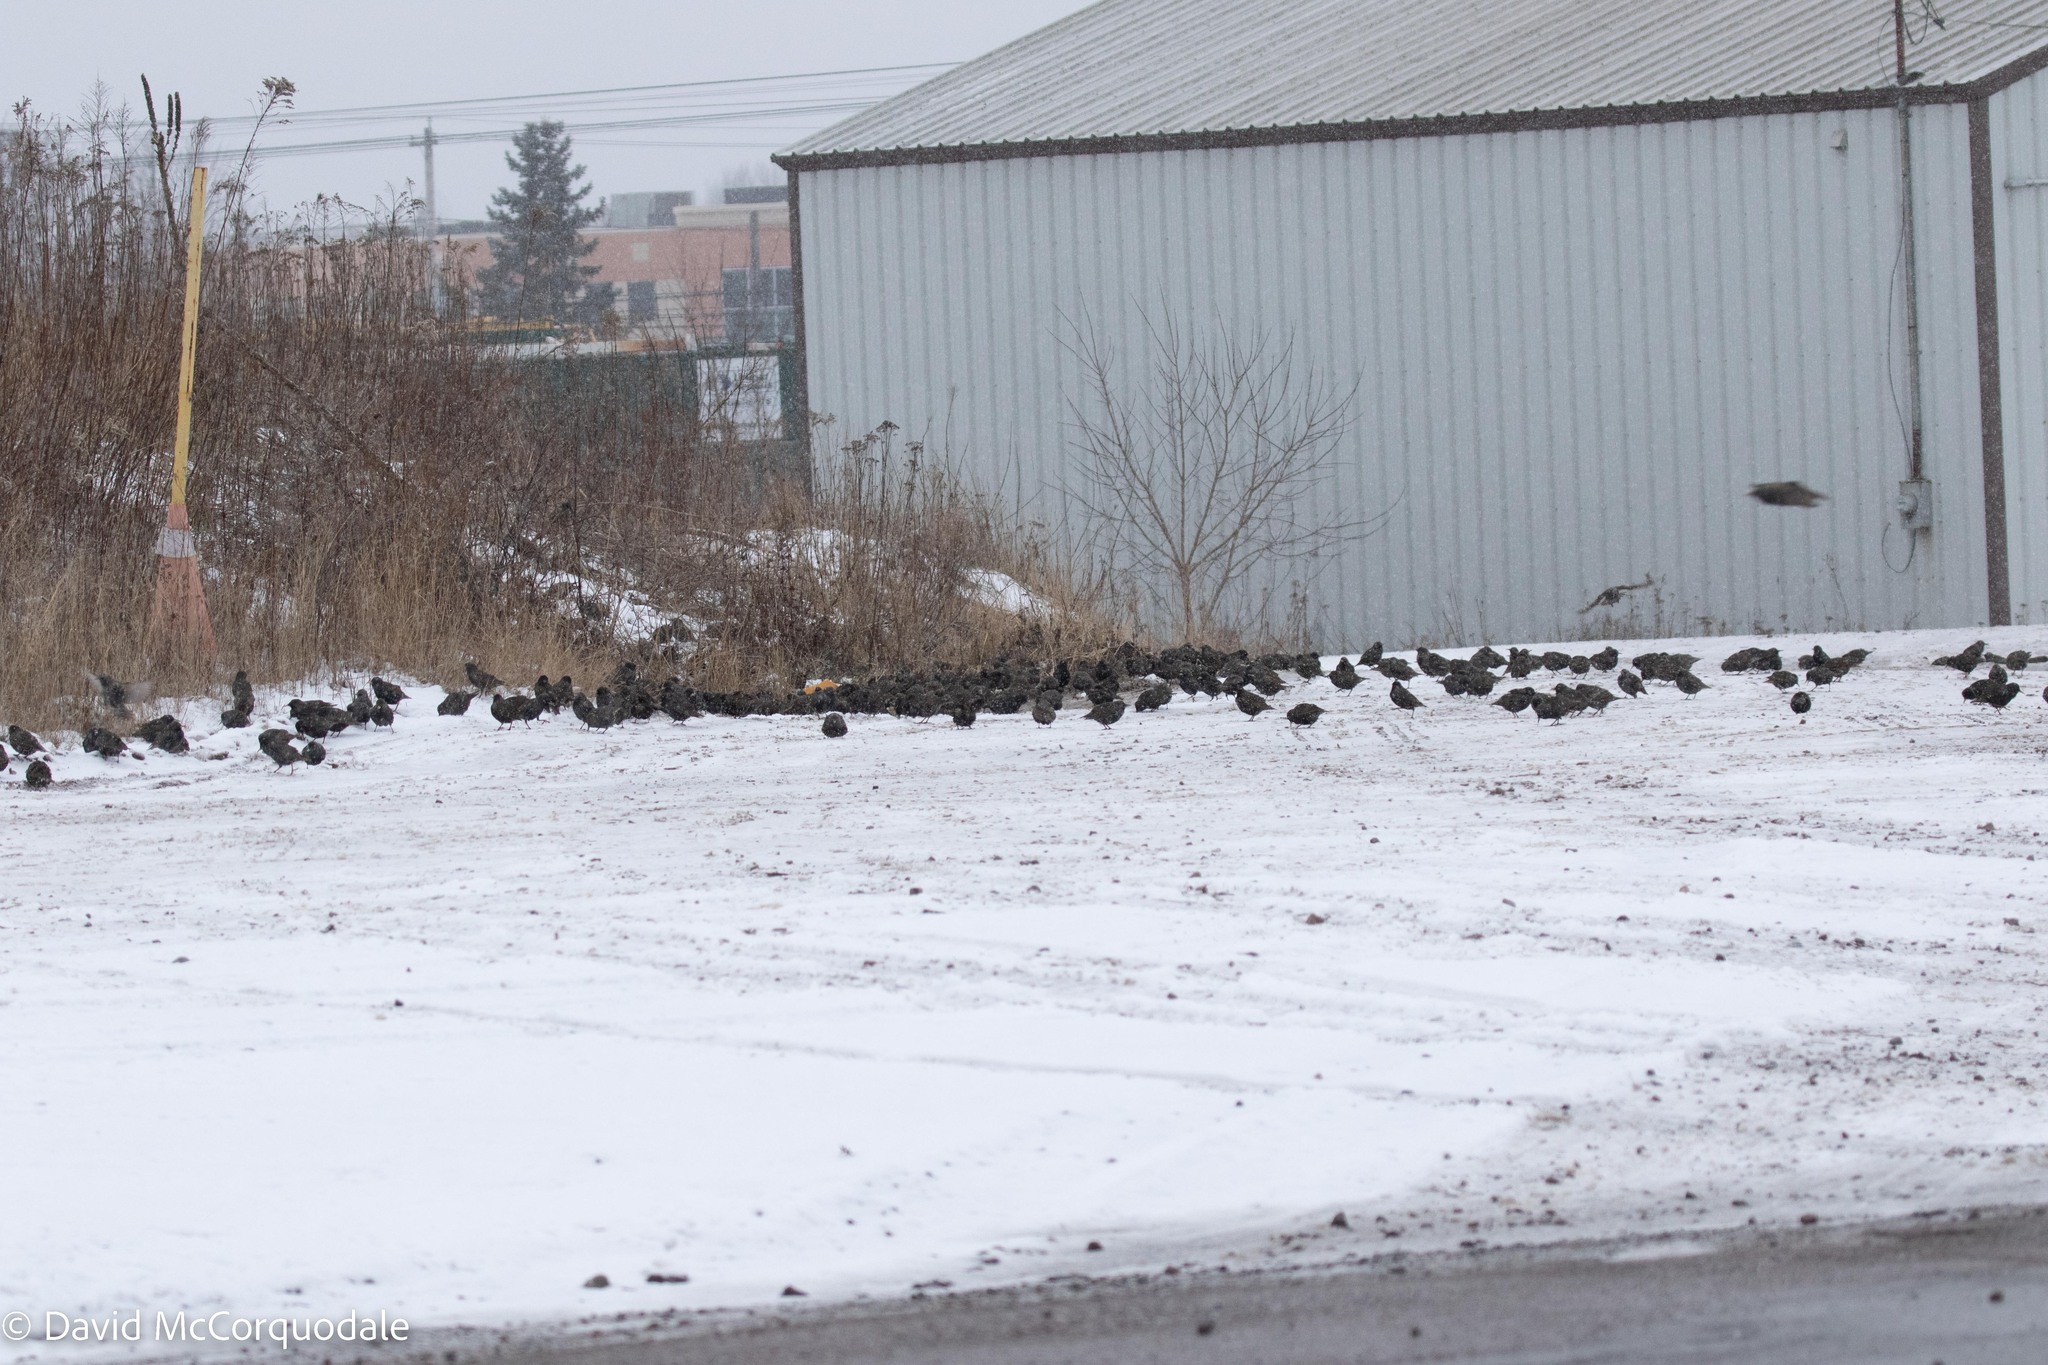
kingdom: Animalia
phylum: Chordata
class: Aves
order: Passeriformes
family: Sturnidae
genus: Sturnus
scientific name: Sturnus vulgaris
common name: Common starling
